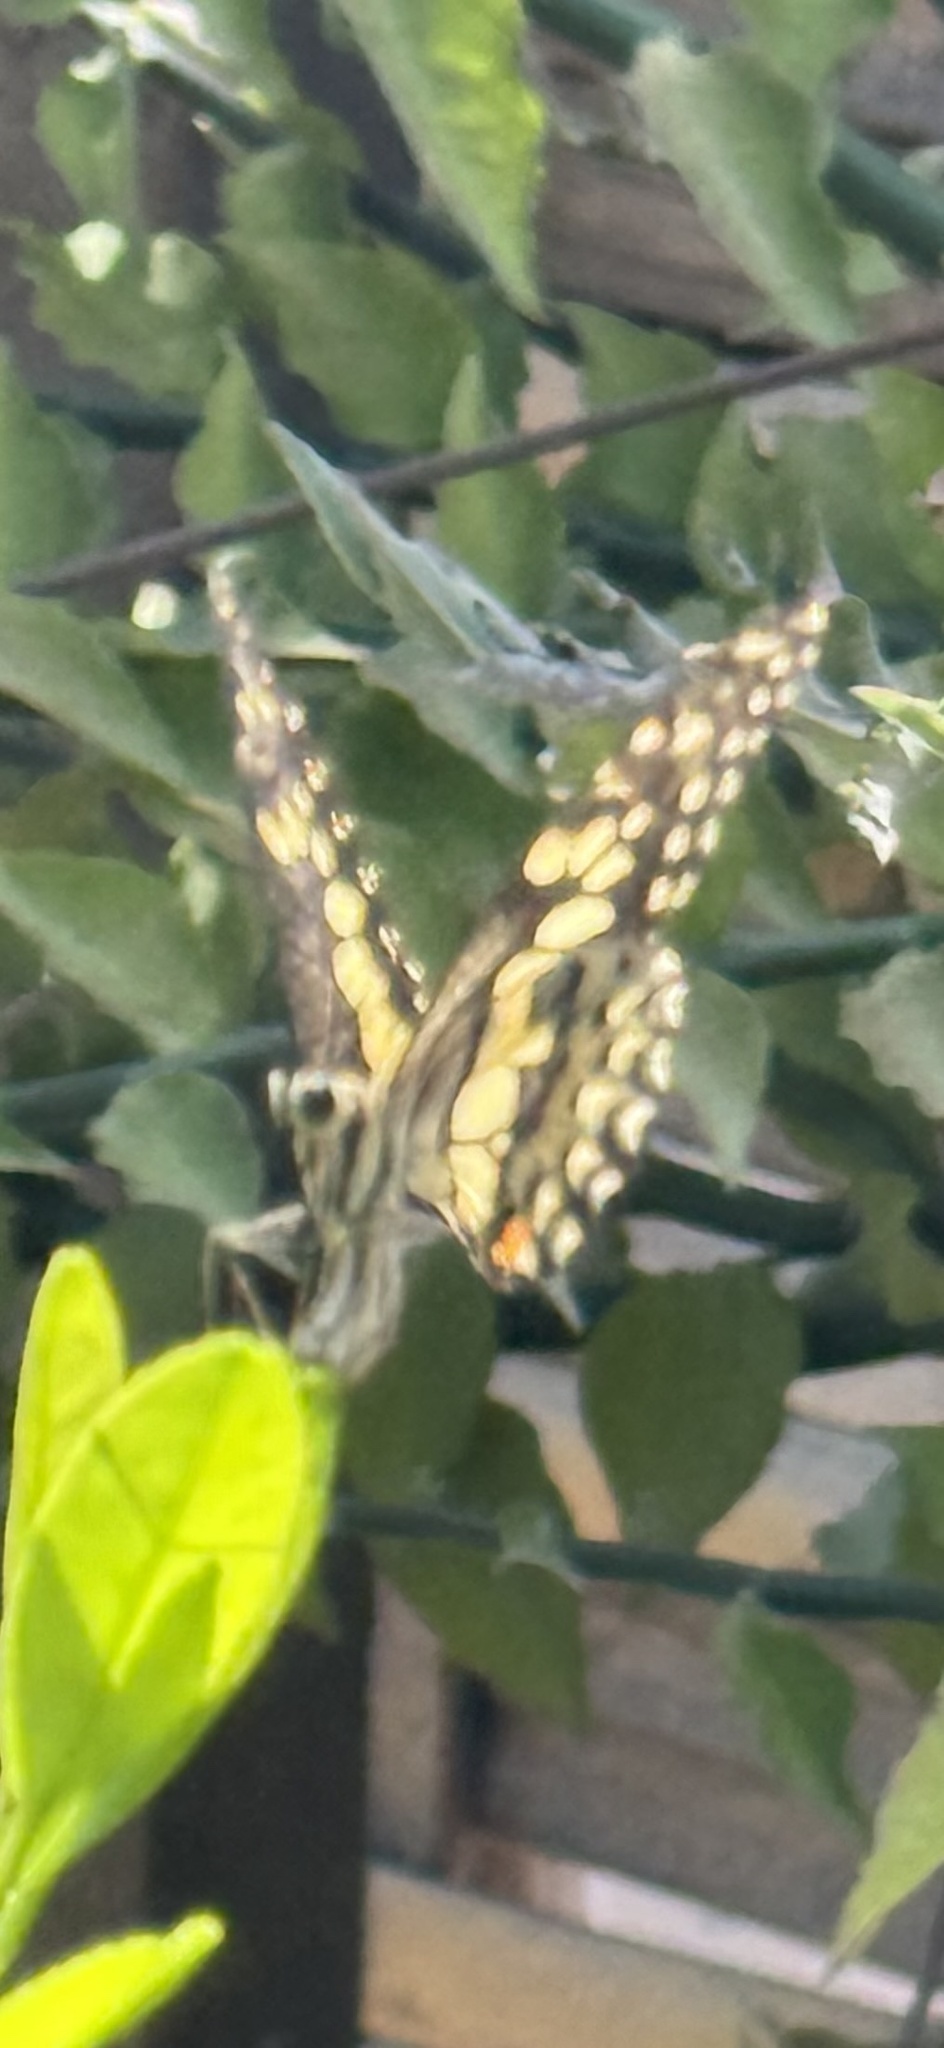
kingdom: Animalia
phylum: Arthropoda
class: Insecta
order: Lepidoptera
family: Papilionidae
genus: Papilio
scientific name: Papilio demoleus
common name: Lime butterfly
